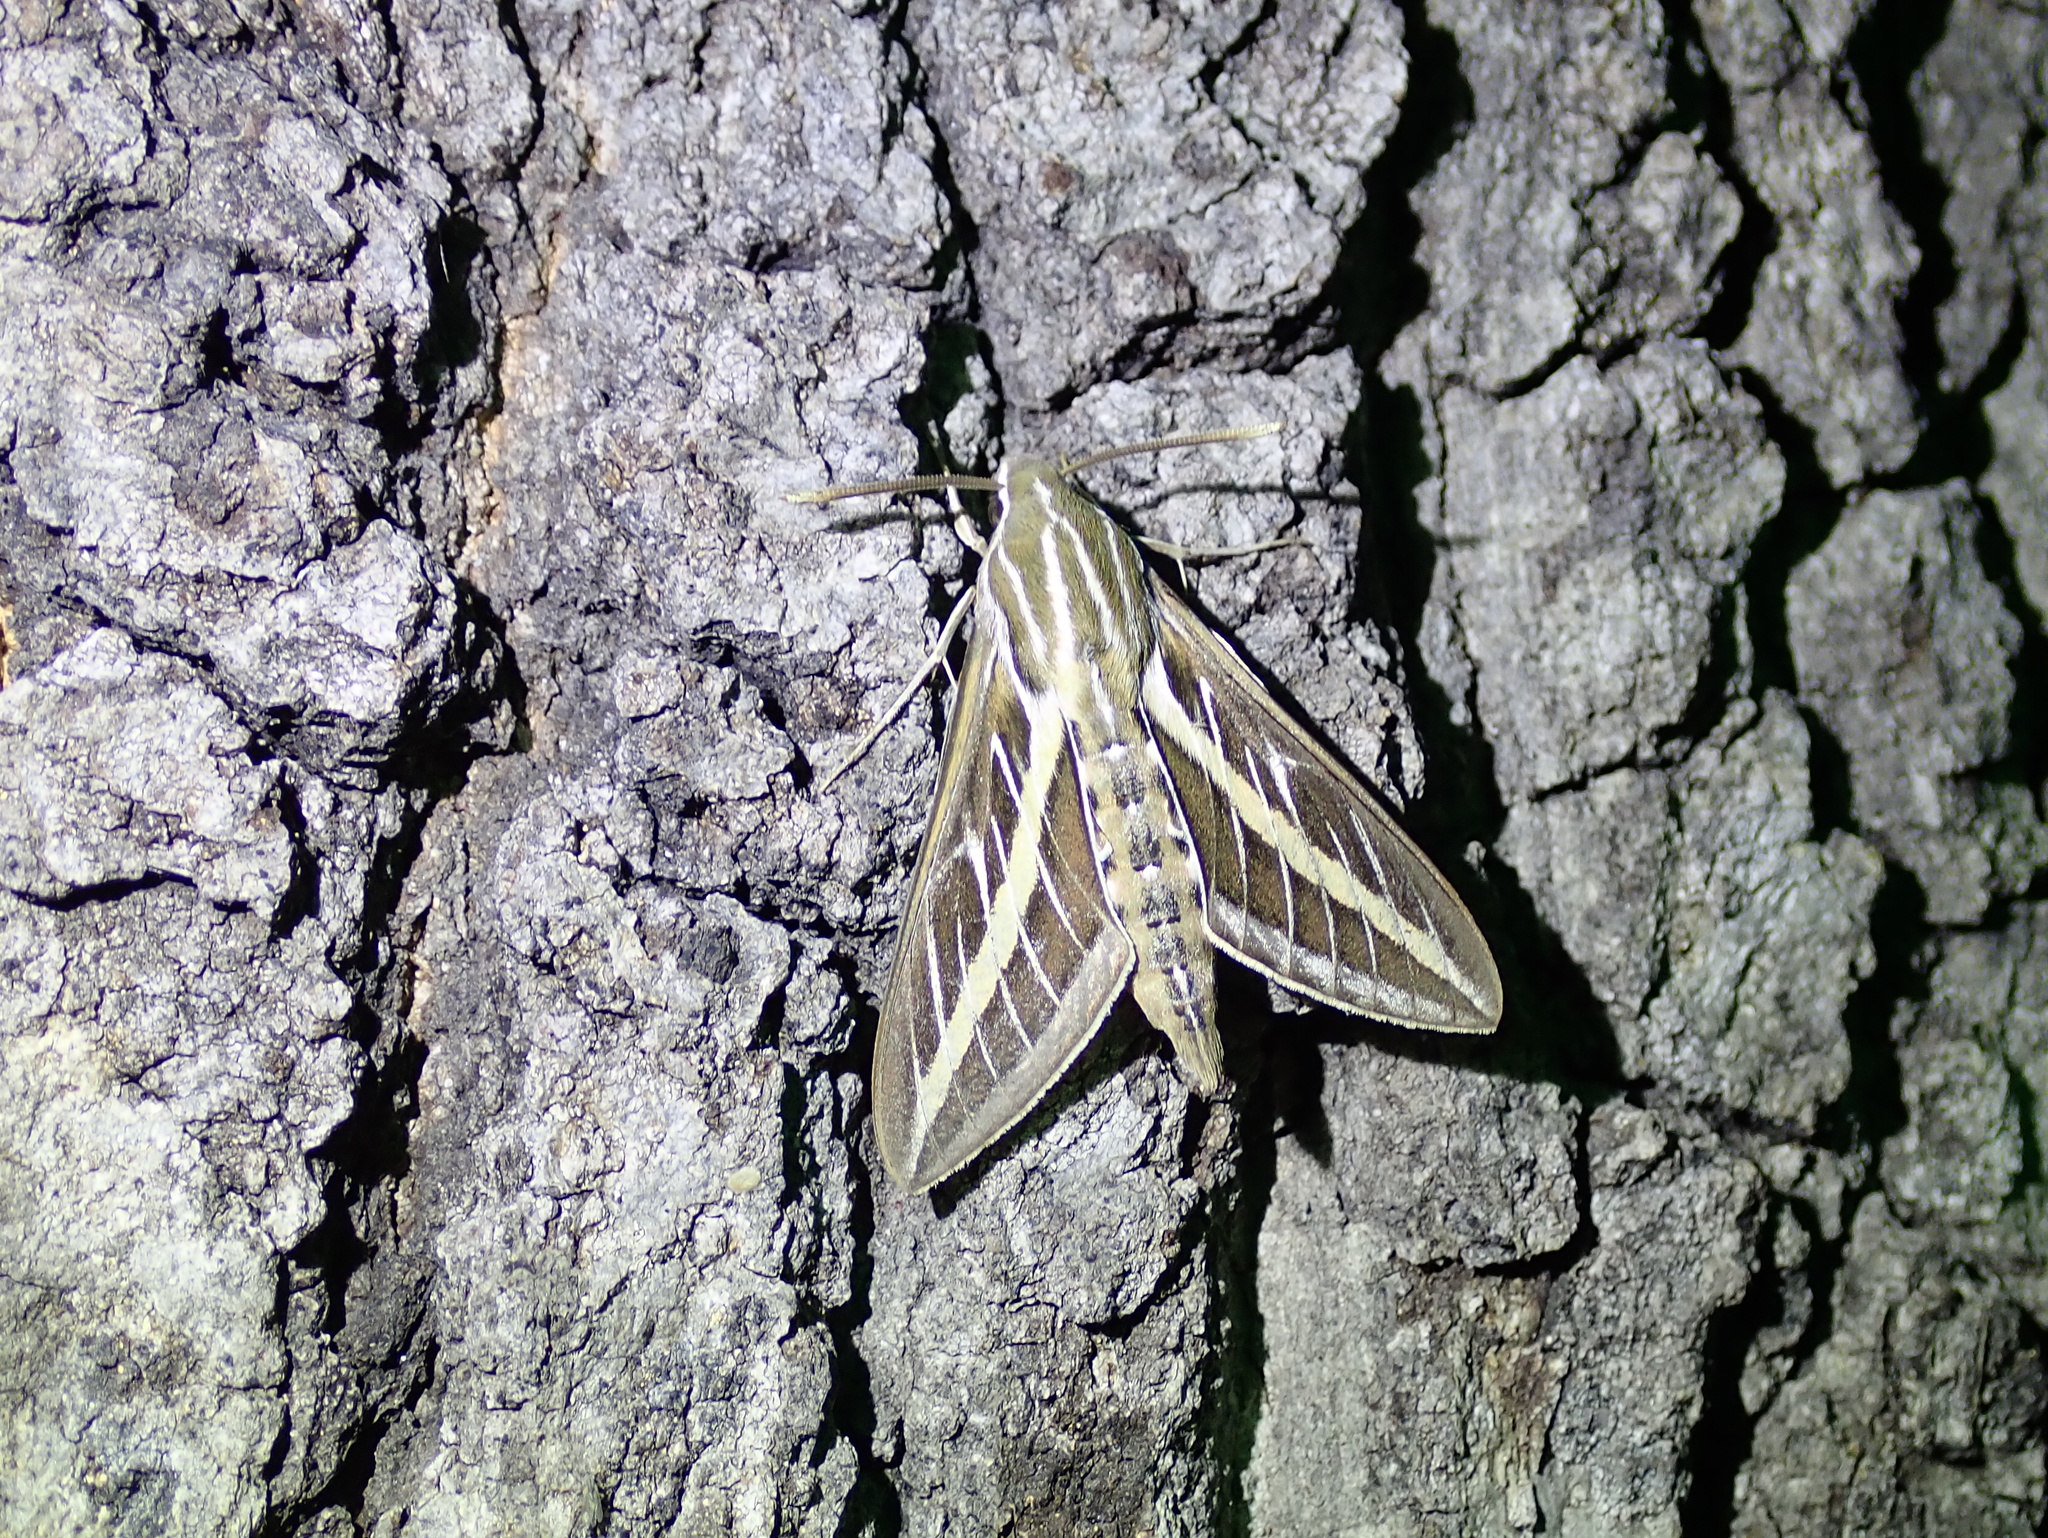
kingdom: Animalia
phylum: Arthropoda
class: Insecta
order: Lepidoptera
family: Sphingidae
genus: Hyles
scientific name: Hyles lineata
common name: White-lined sphinx
